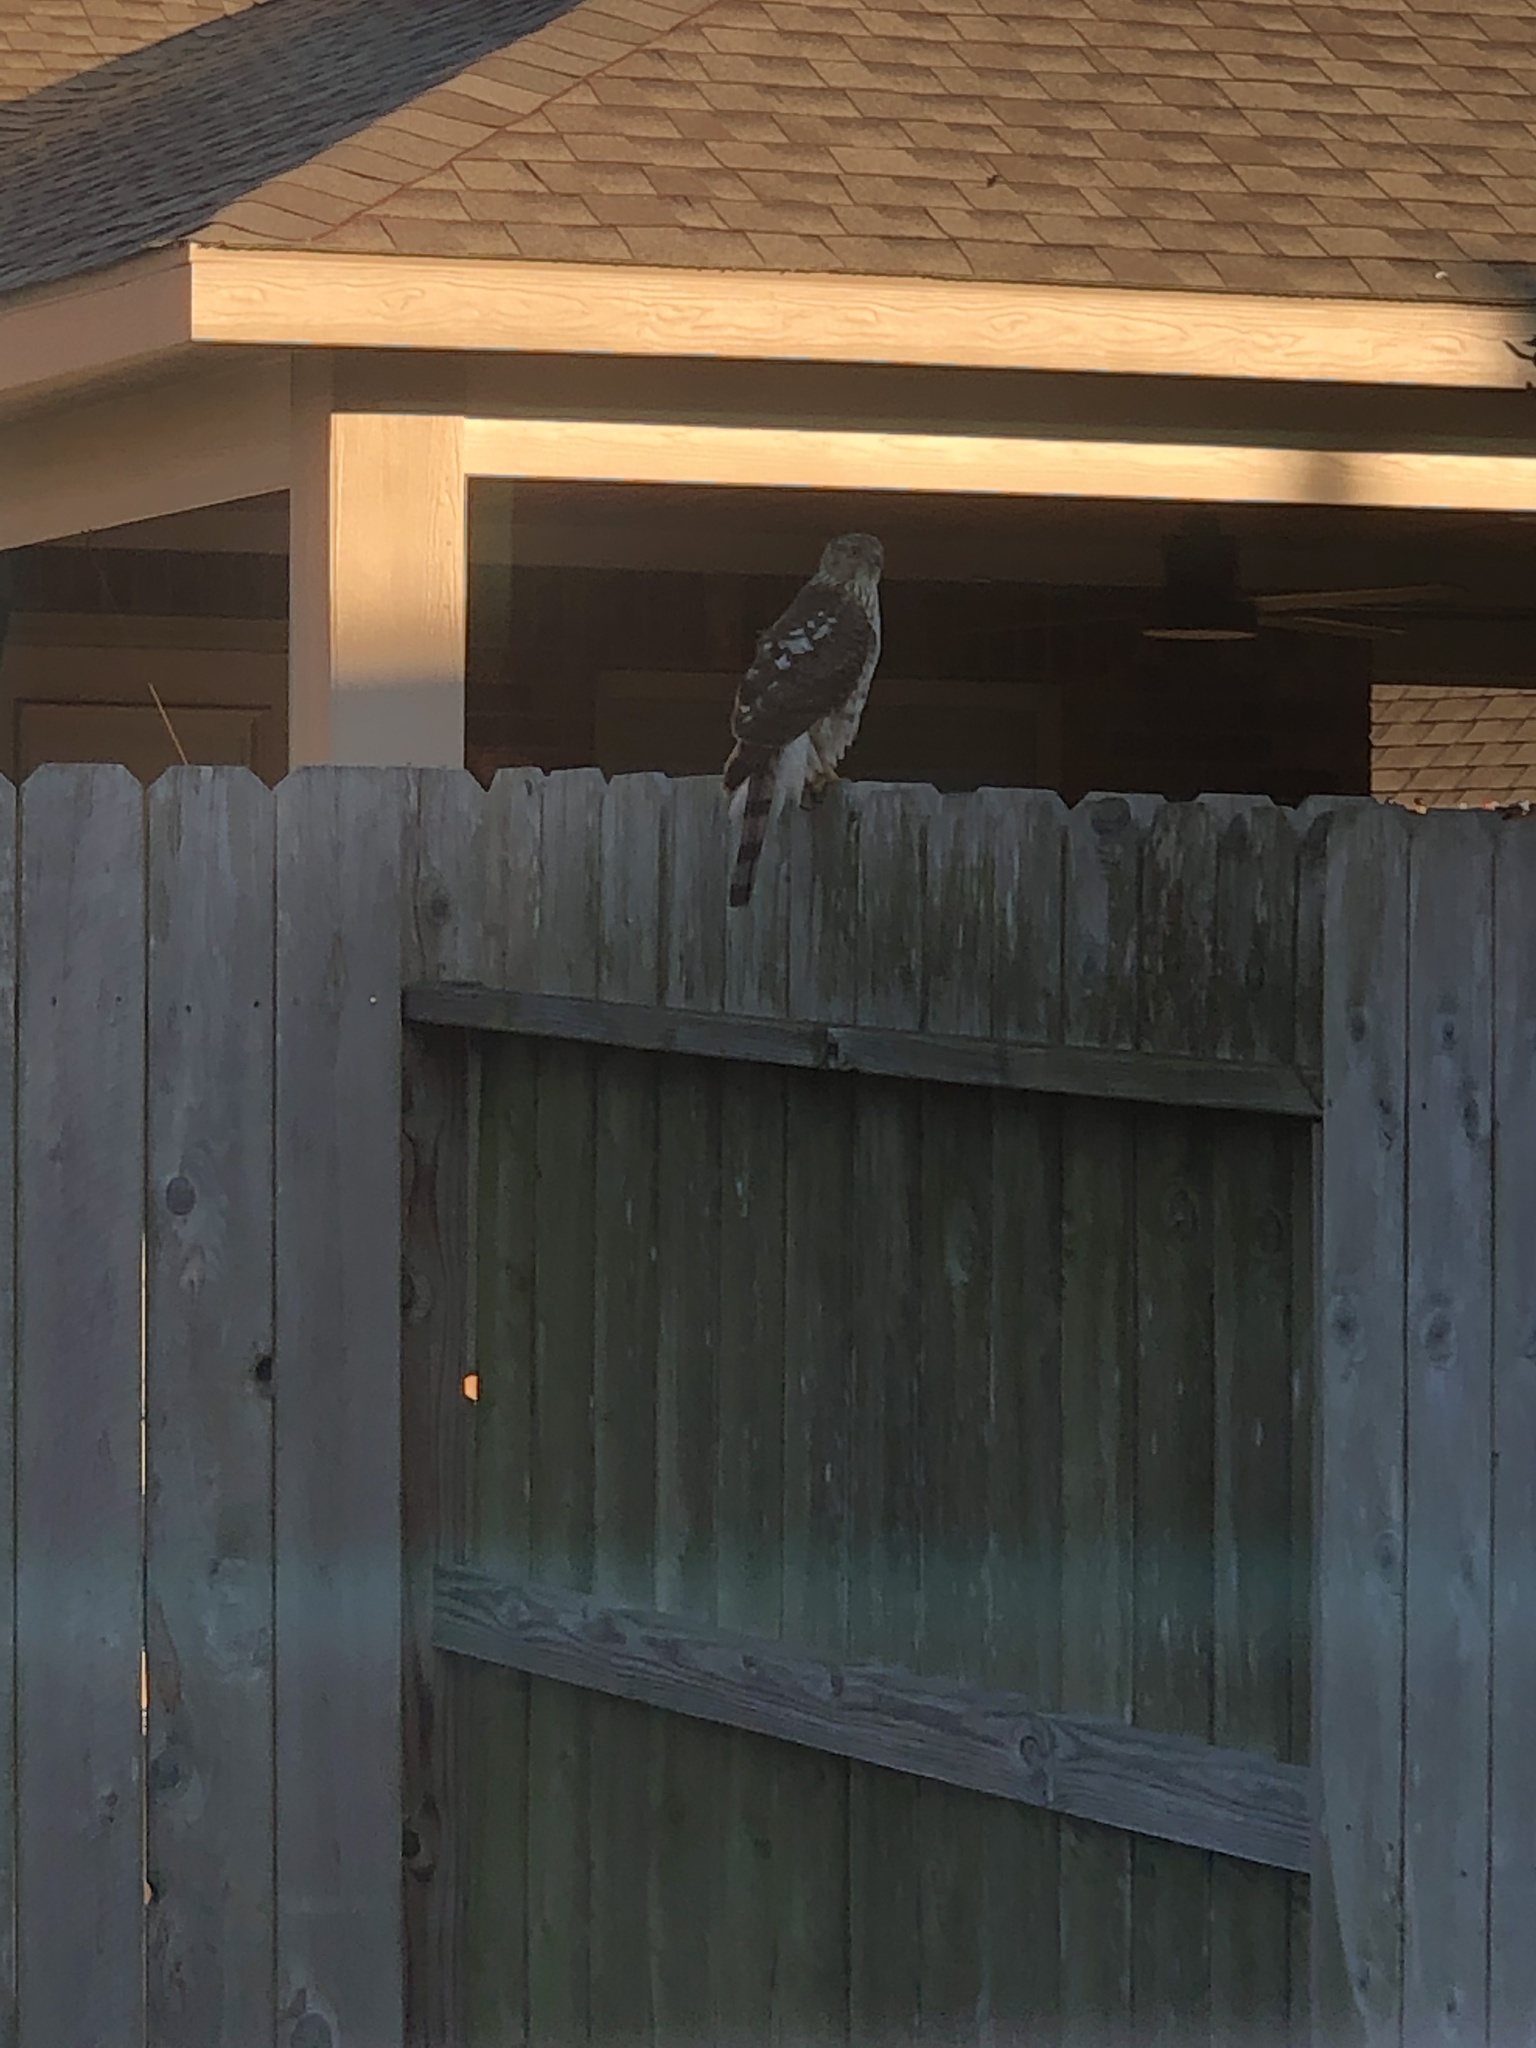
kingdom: Animalia
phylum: Chordata
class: Aves
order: Accipitriformes
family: Accipitridae
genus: Accipiter
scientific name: Accipiter cooperii
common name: Cooper's hawk
